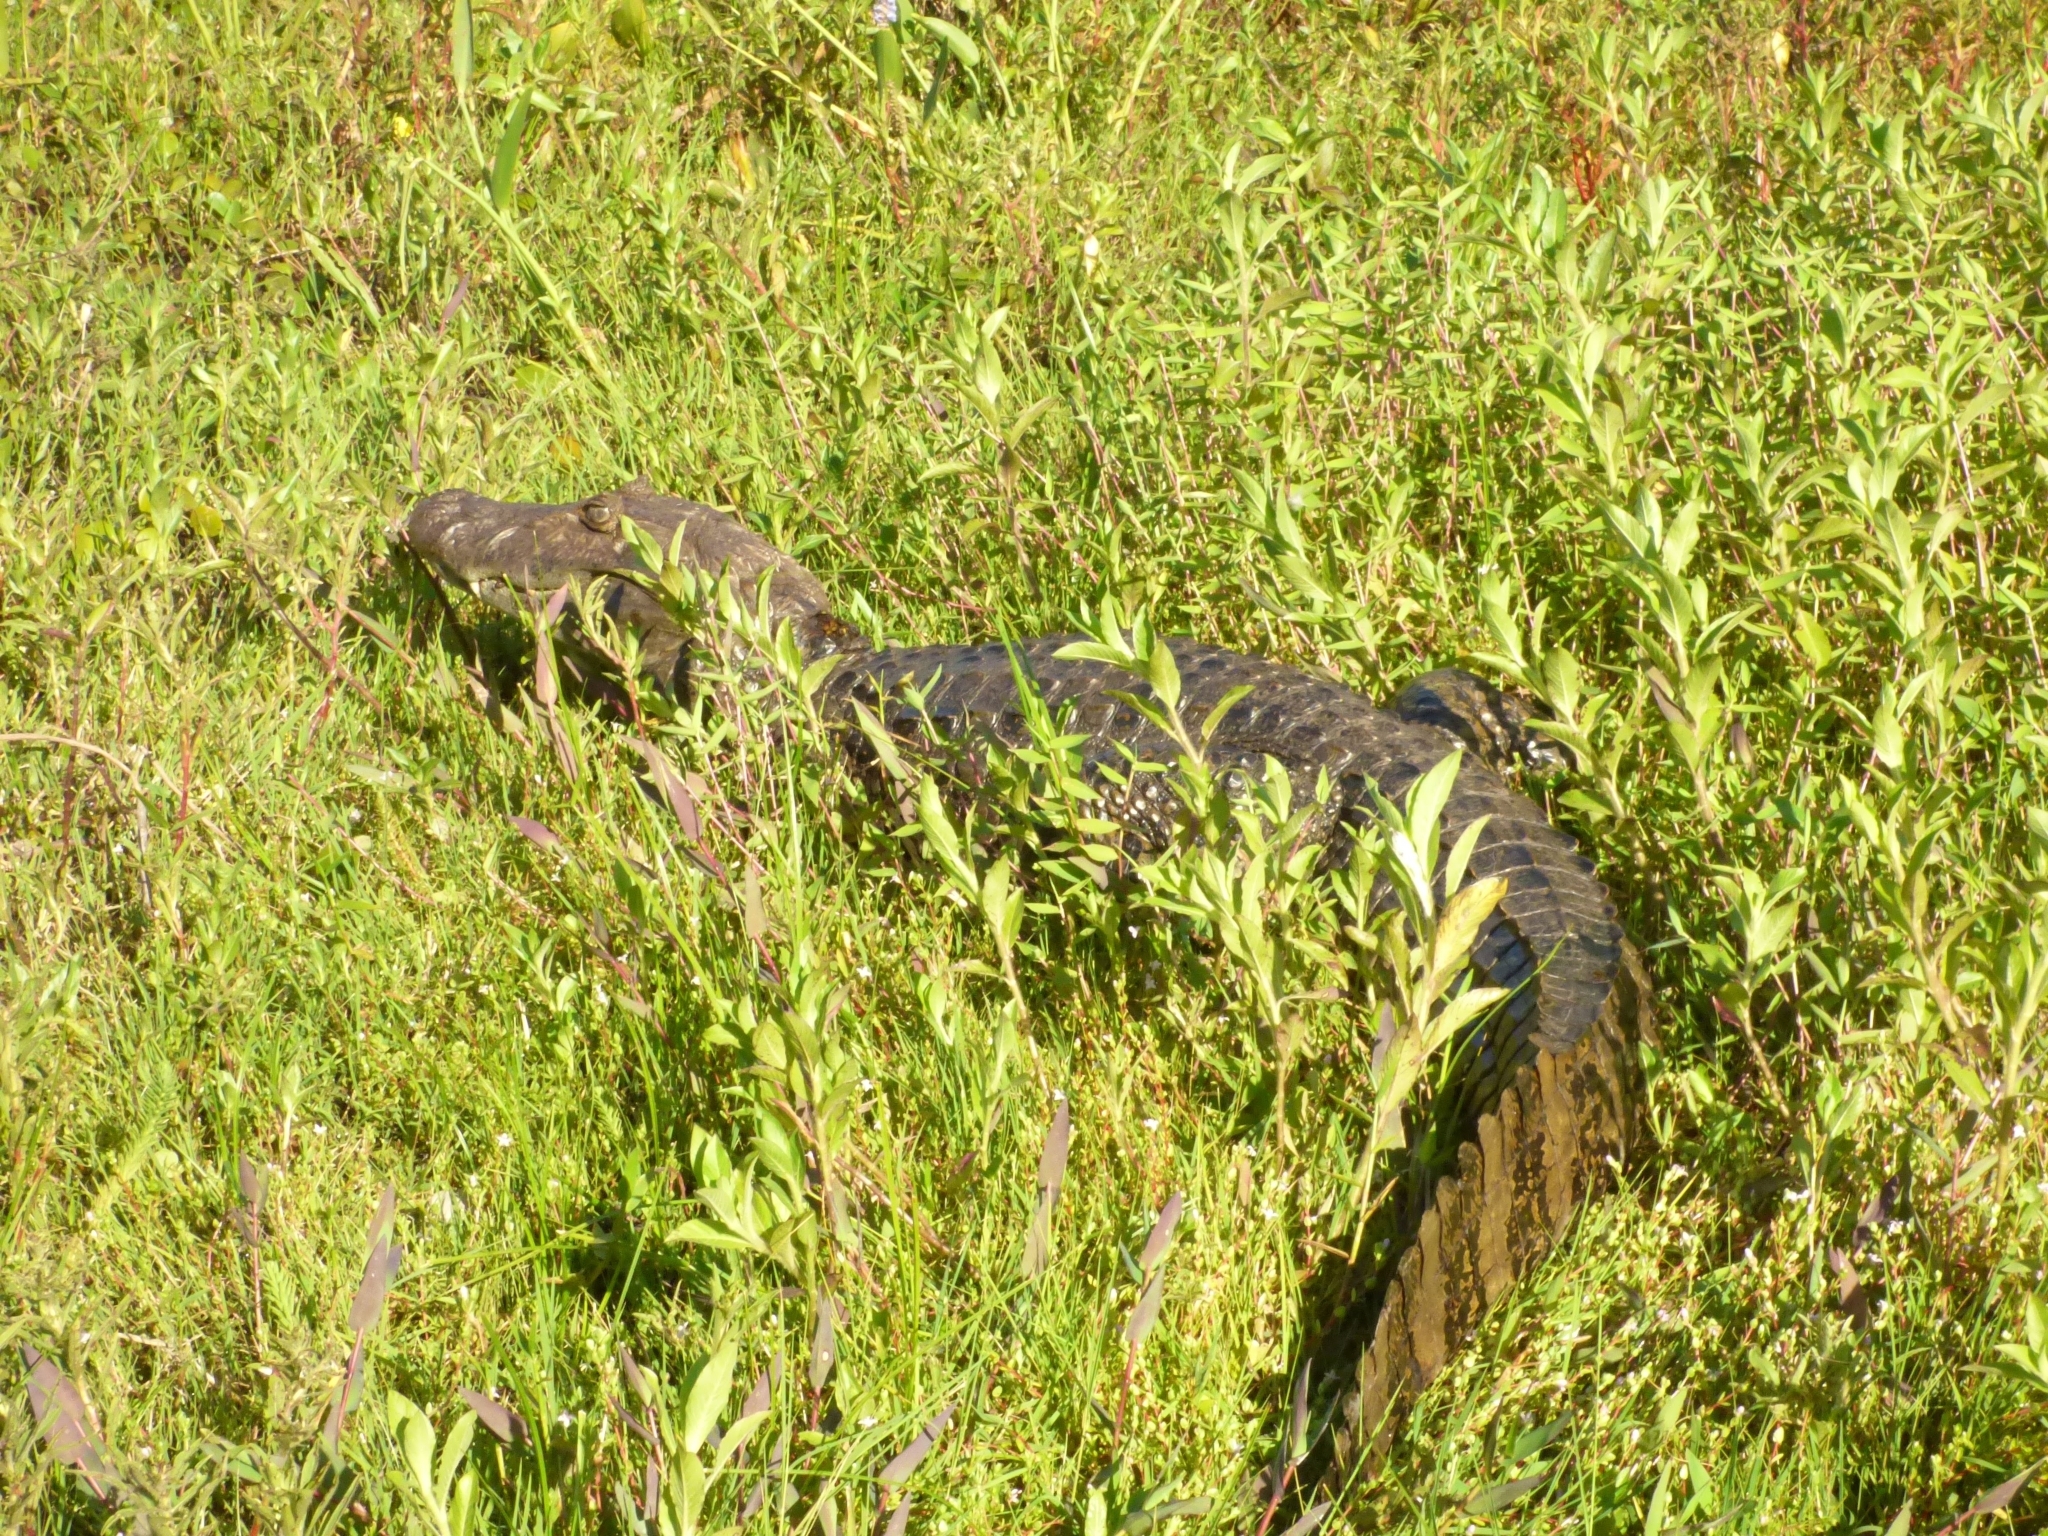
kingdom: Animalia
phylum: Chordata
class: Crocodylia
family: Alligatoridae
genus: Caiman
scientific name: Caiman latirostris
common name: Broad-snouted caiman
